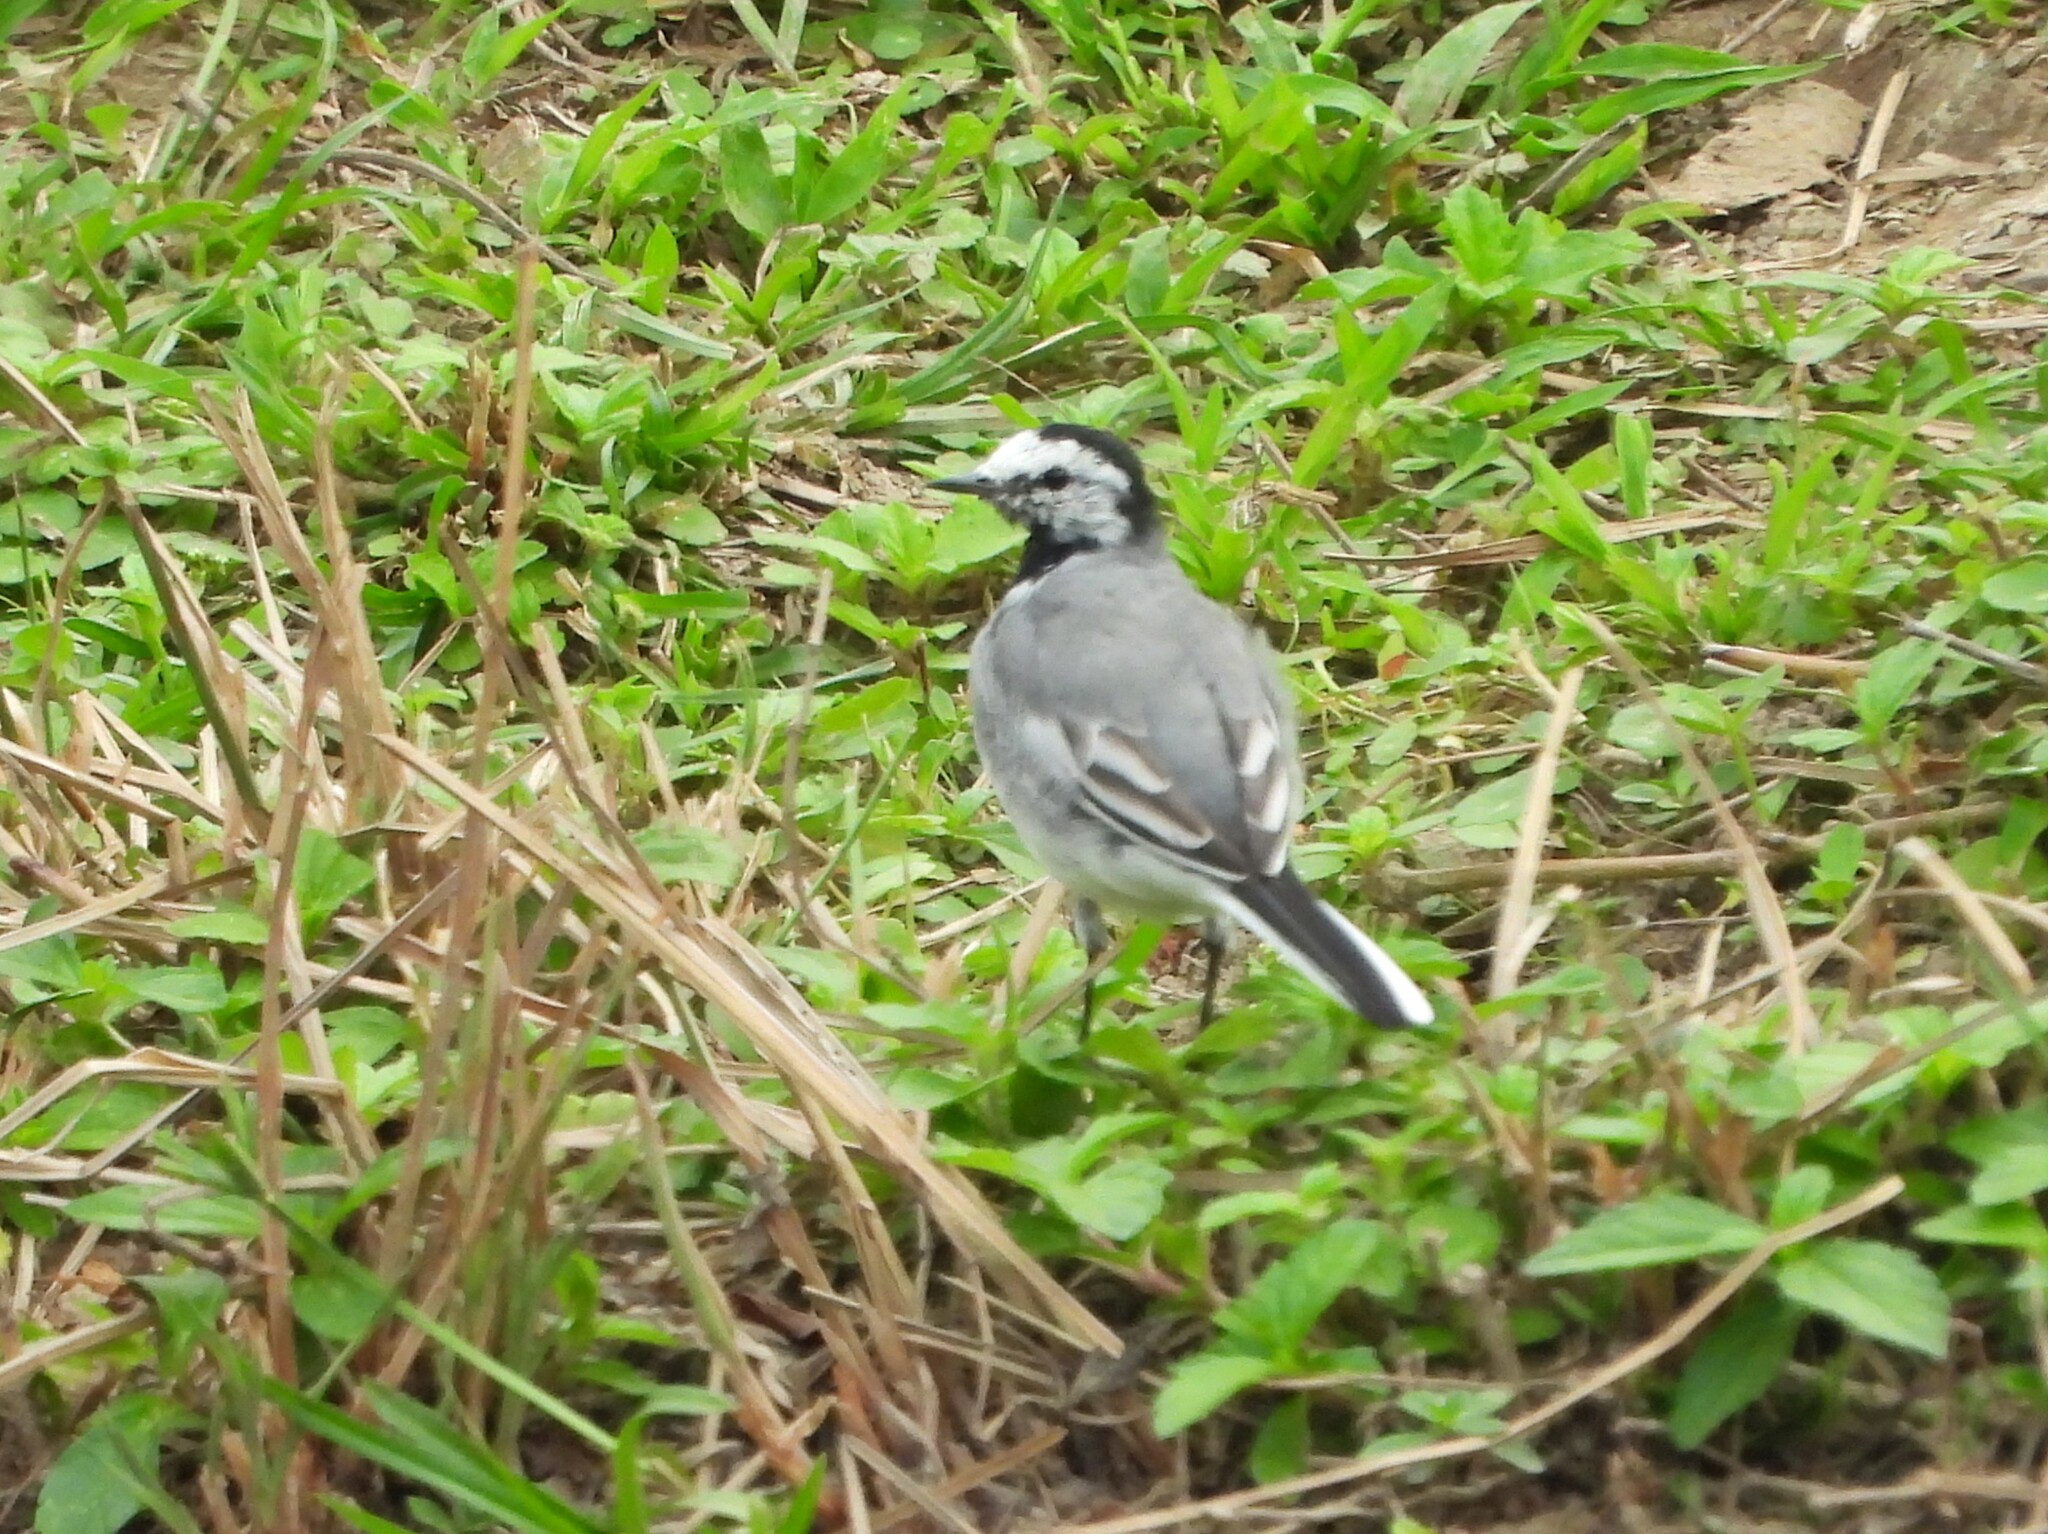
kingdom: Animalia
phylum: Chordata
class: Aves
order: Passeriformes
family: Motacillidae
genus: Motacilla
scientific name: Motacilla alba
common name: White wagtail
